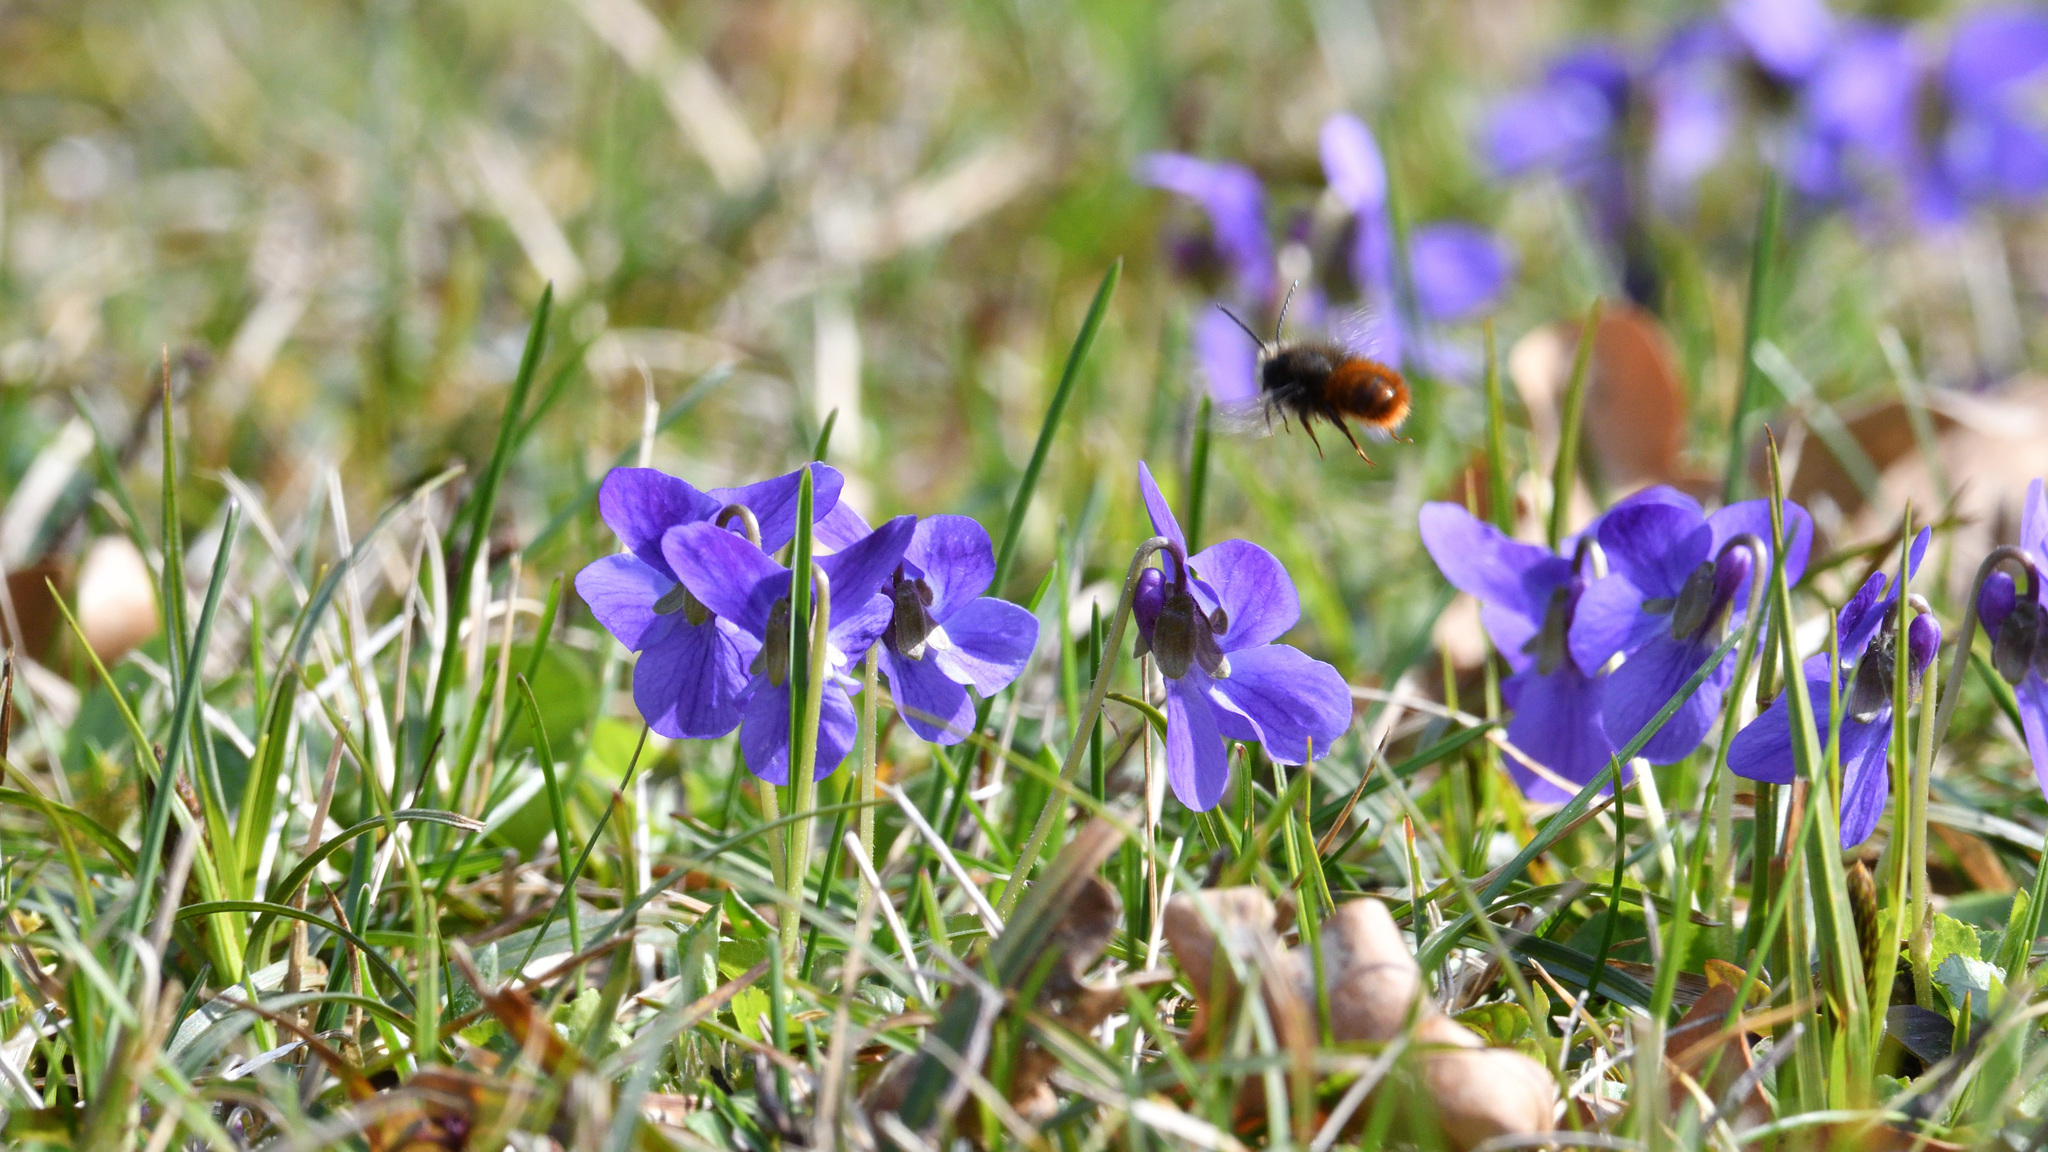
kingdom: Animalia
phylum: Arthropoda
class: Insecta
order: Hymenoptera
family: Megachilidae
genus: Osmia
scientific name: Osmia cornuta
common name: Mason bee
